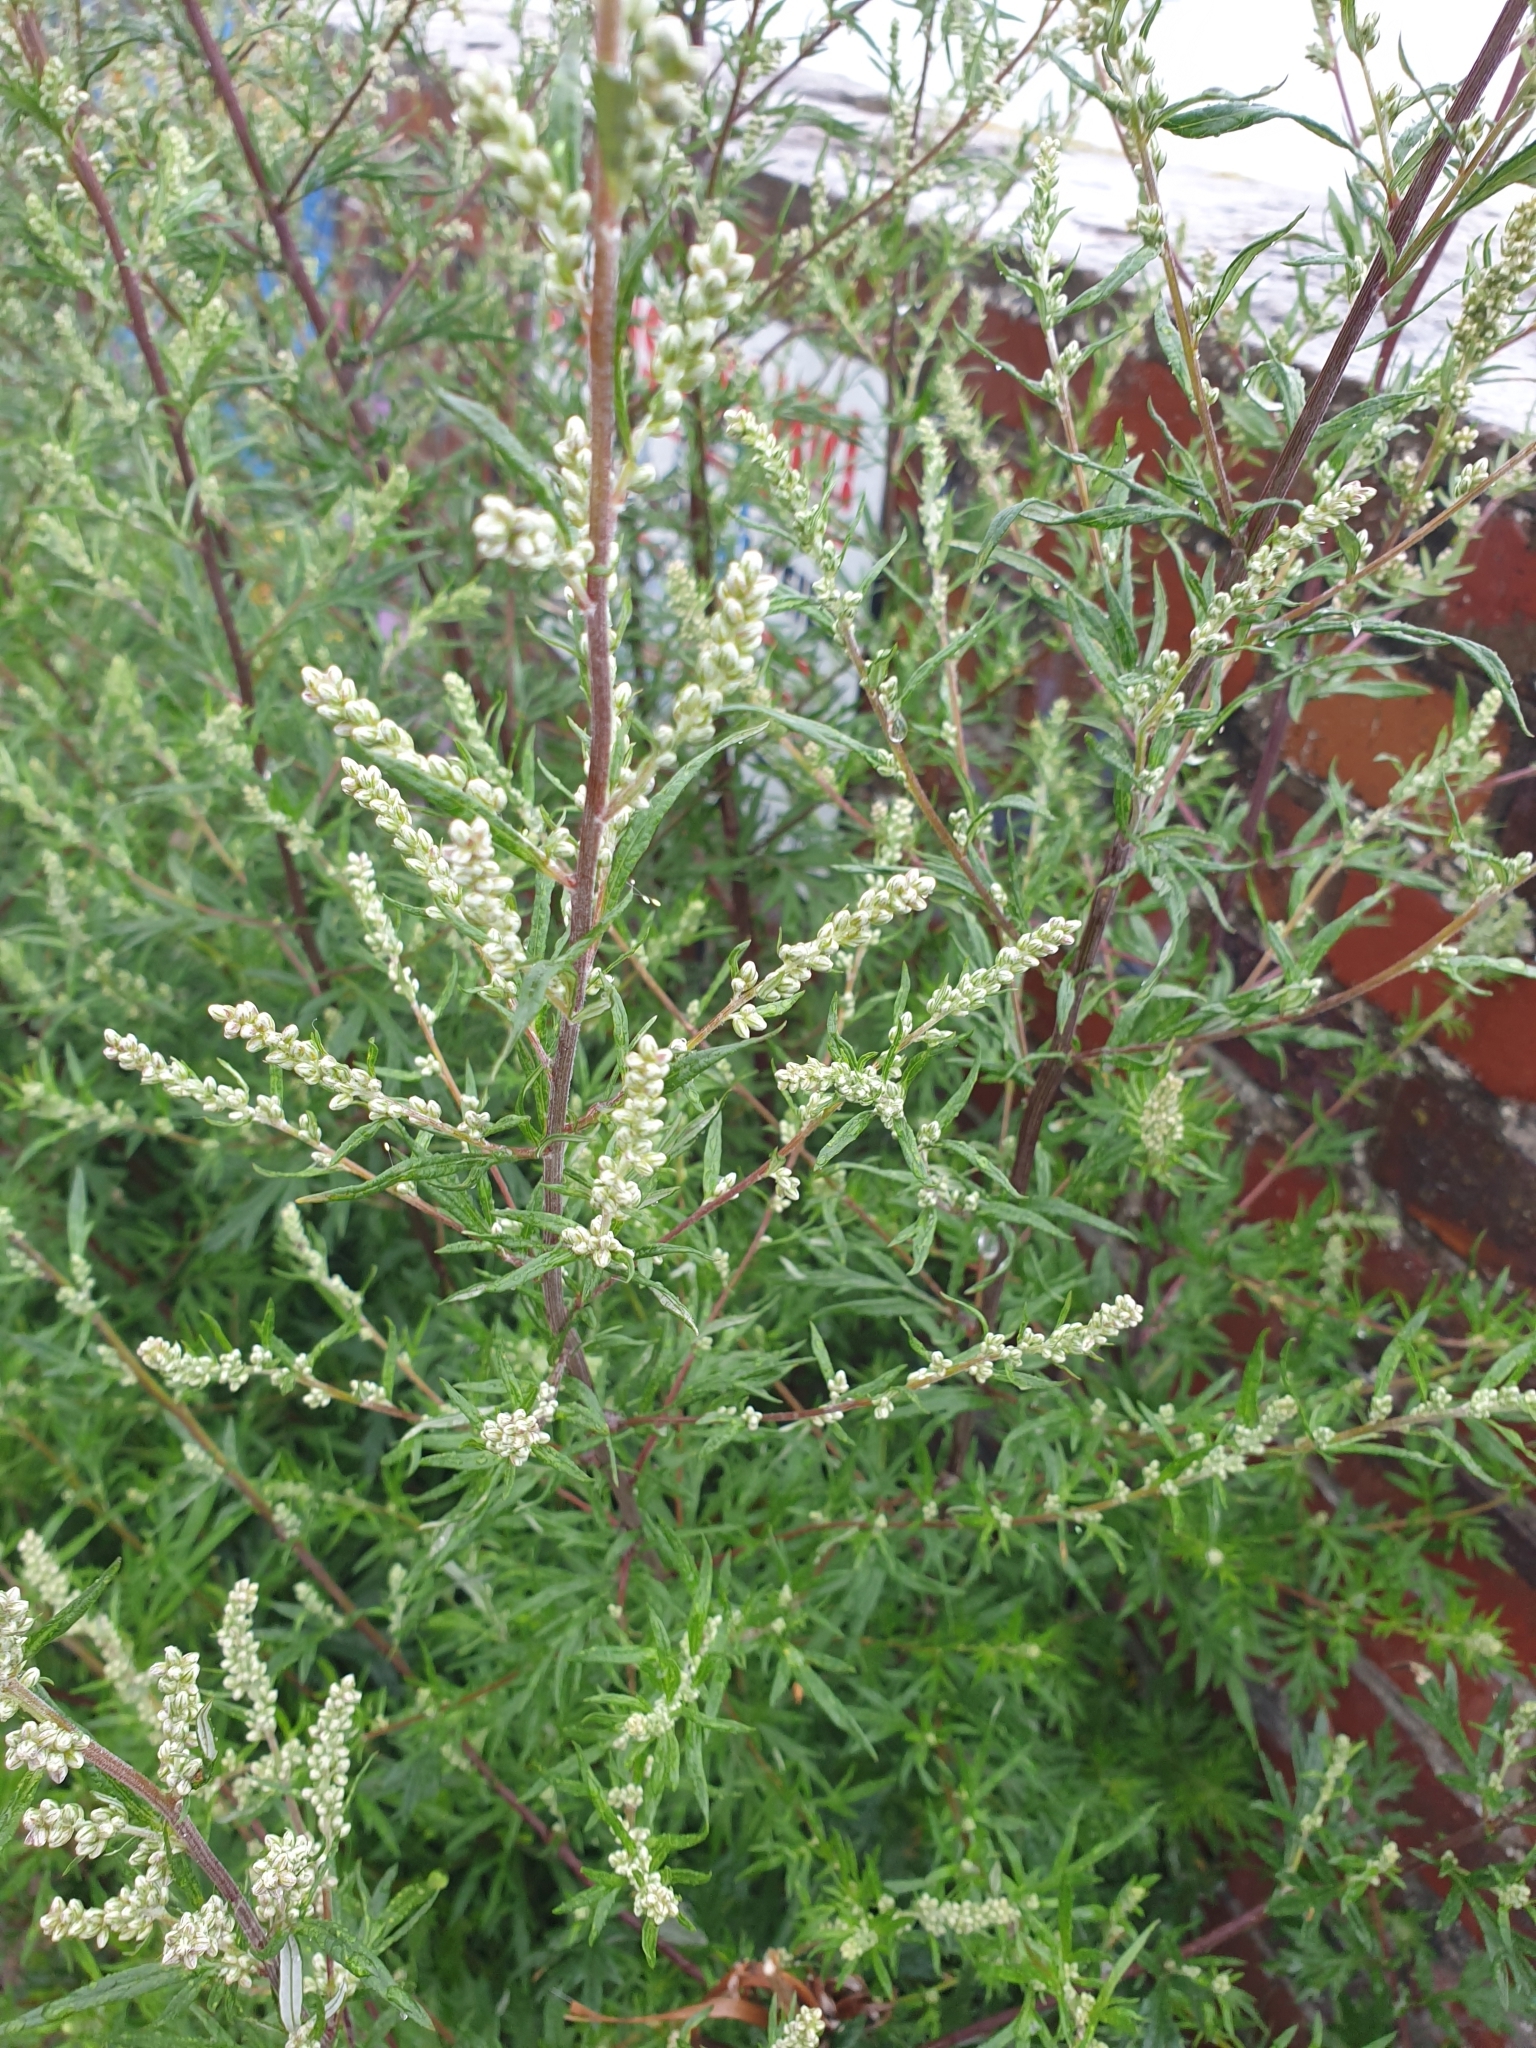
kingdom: Plantae
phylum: Tracheophyta
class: Magnoliopsida
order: Asterales
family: Asteraceae
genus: Artemisia
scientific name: Artemisia vulgaris
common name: Mugwort
